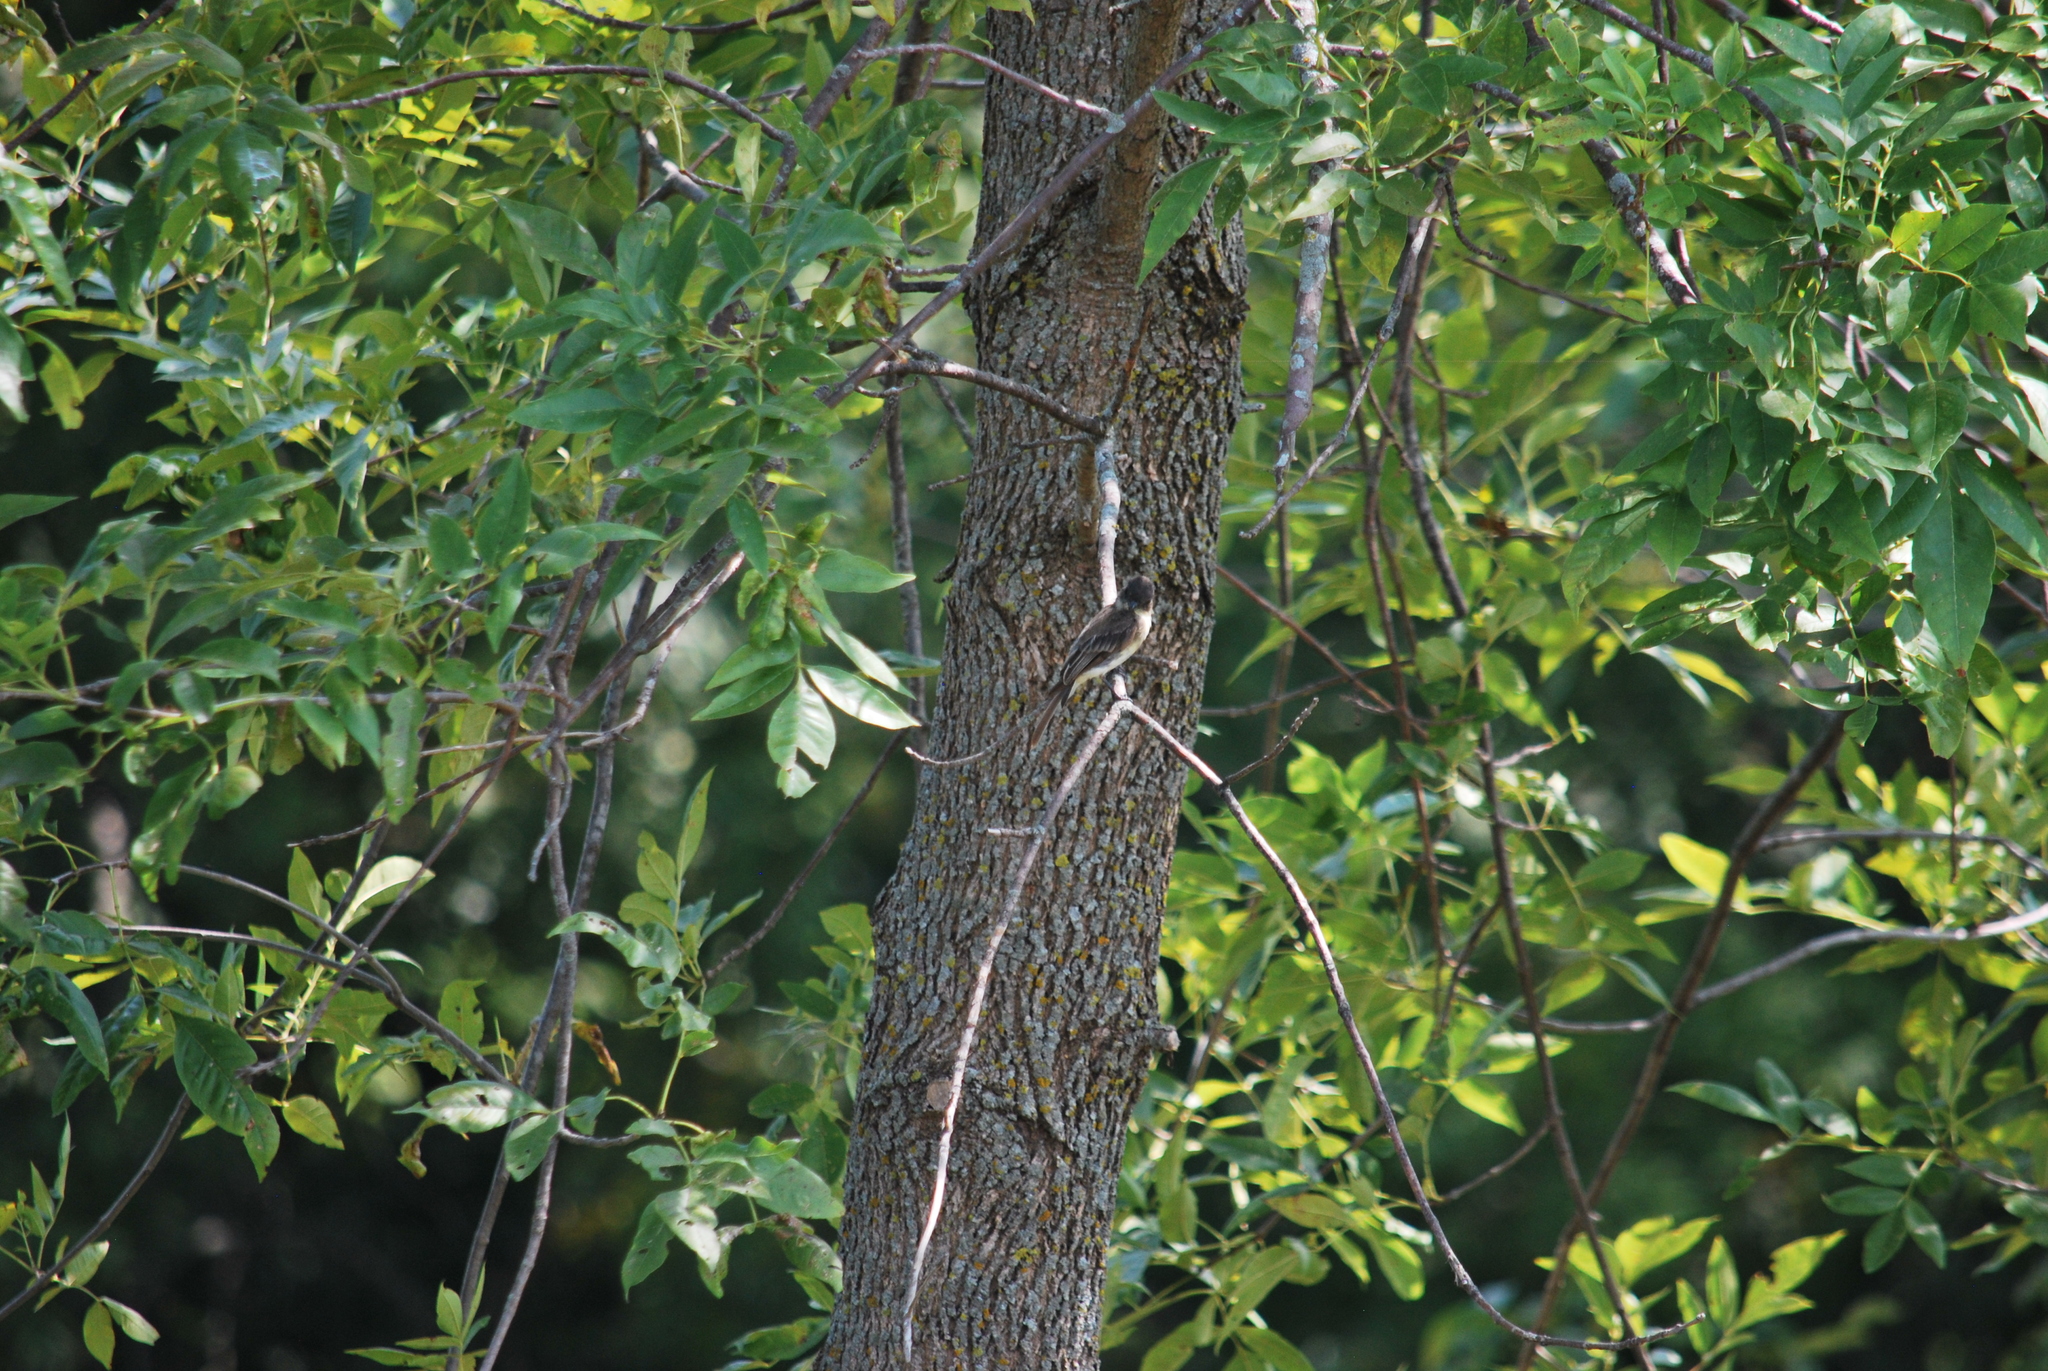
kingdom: Animalia
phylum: Chordata
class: Aves
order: Passeriformes
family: Tyrannidae
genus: Sayornis
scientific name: Sayornis phoebe
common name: Eastern phoebe
